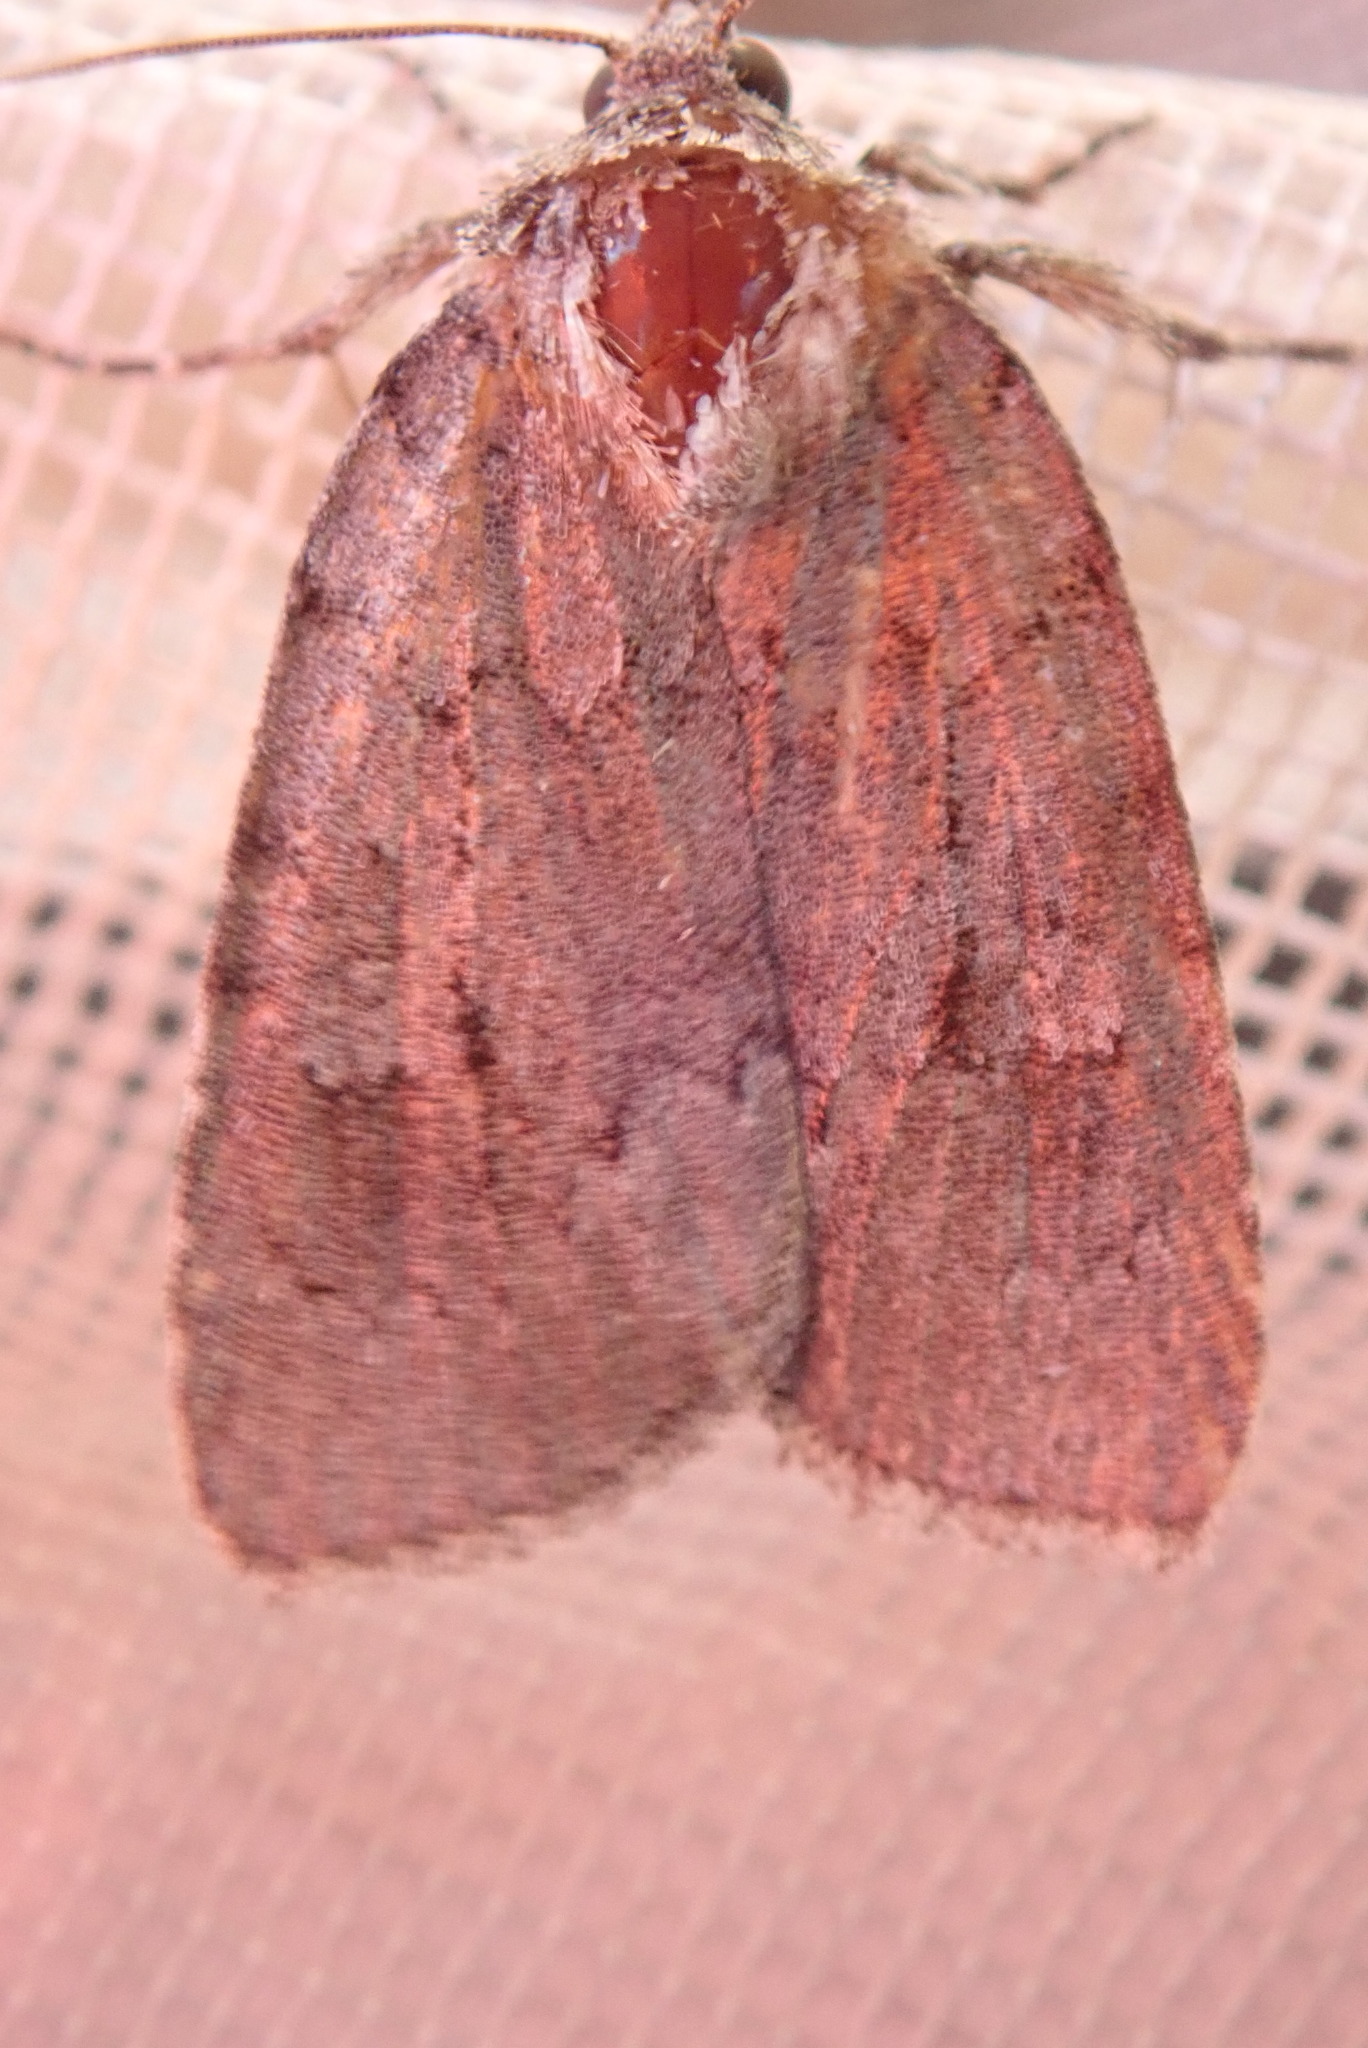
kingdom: Animalia
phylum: Arthropoda
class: Insecta
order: Lepidoptera
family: Noctuidae
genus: Sympistis
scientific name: Sympistis dentata
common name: Blueberry sallow
